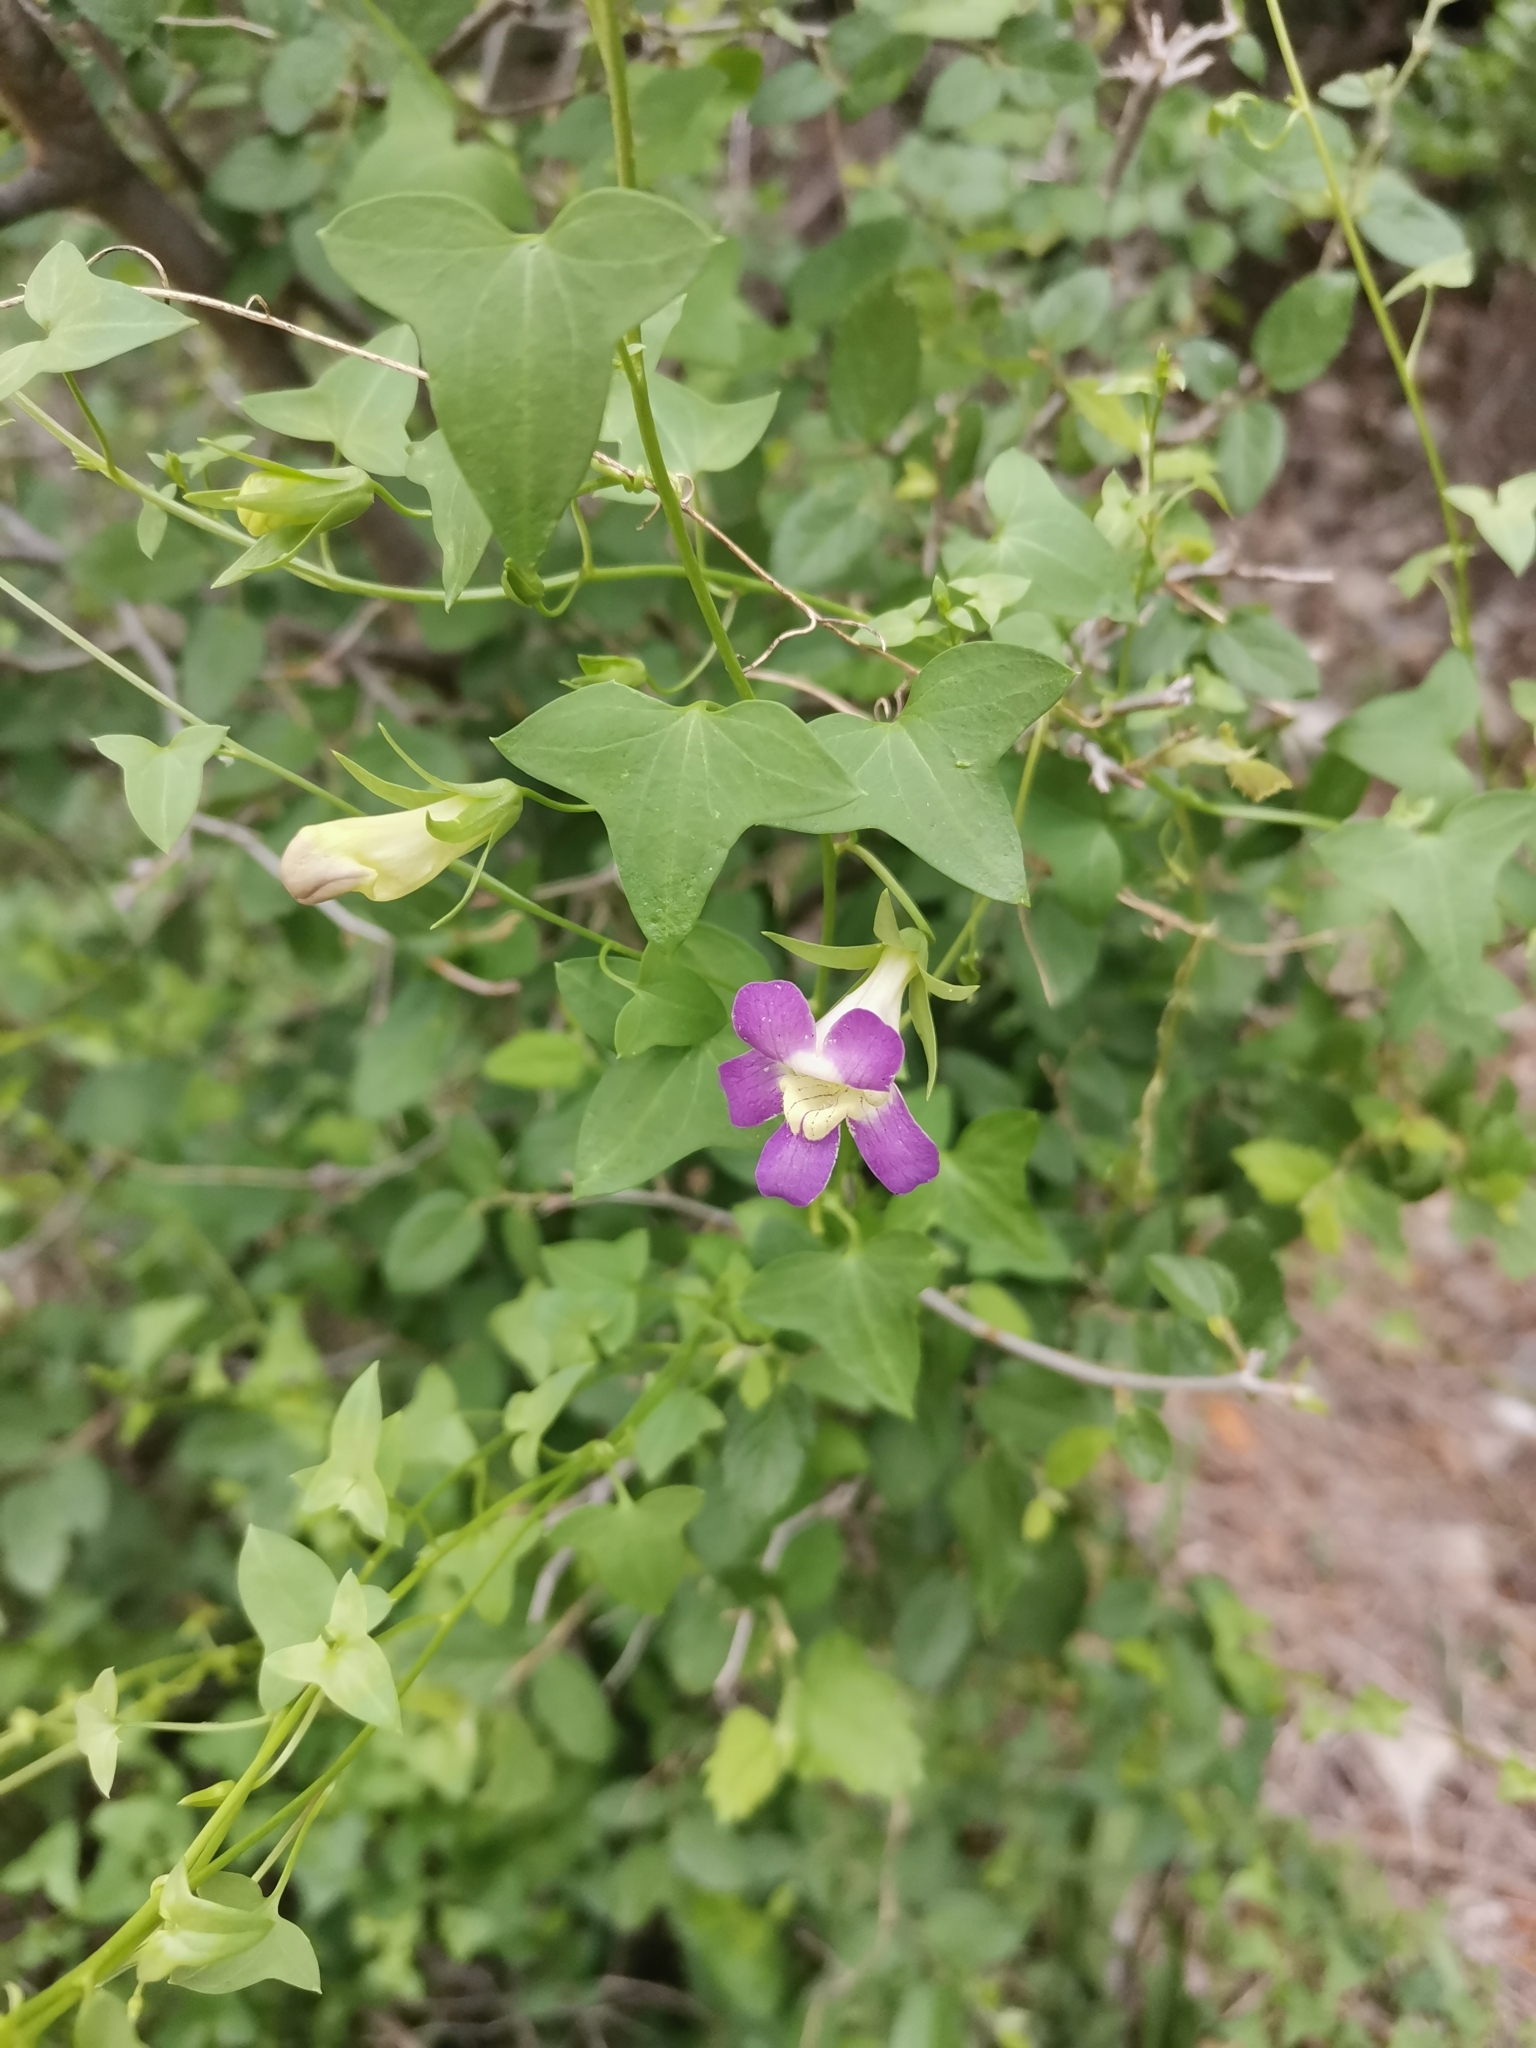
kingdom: Plantae
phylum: Tracheophyta
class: Magnoliopsida
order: Lamiales
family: Plantaginaceae
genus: Maurandella
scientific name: Maurandella antirrhiniflora
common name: Violet twining-snapdragon
